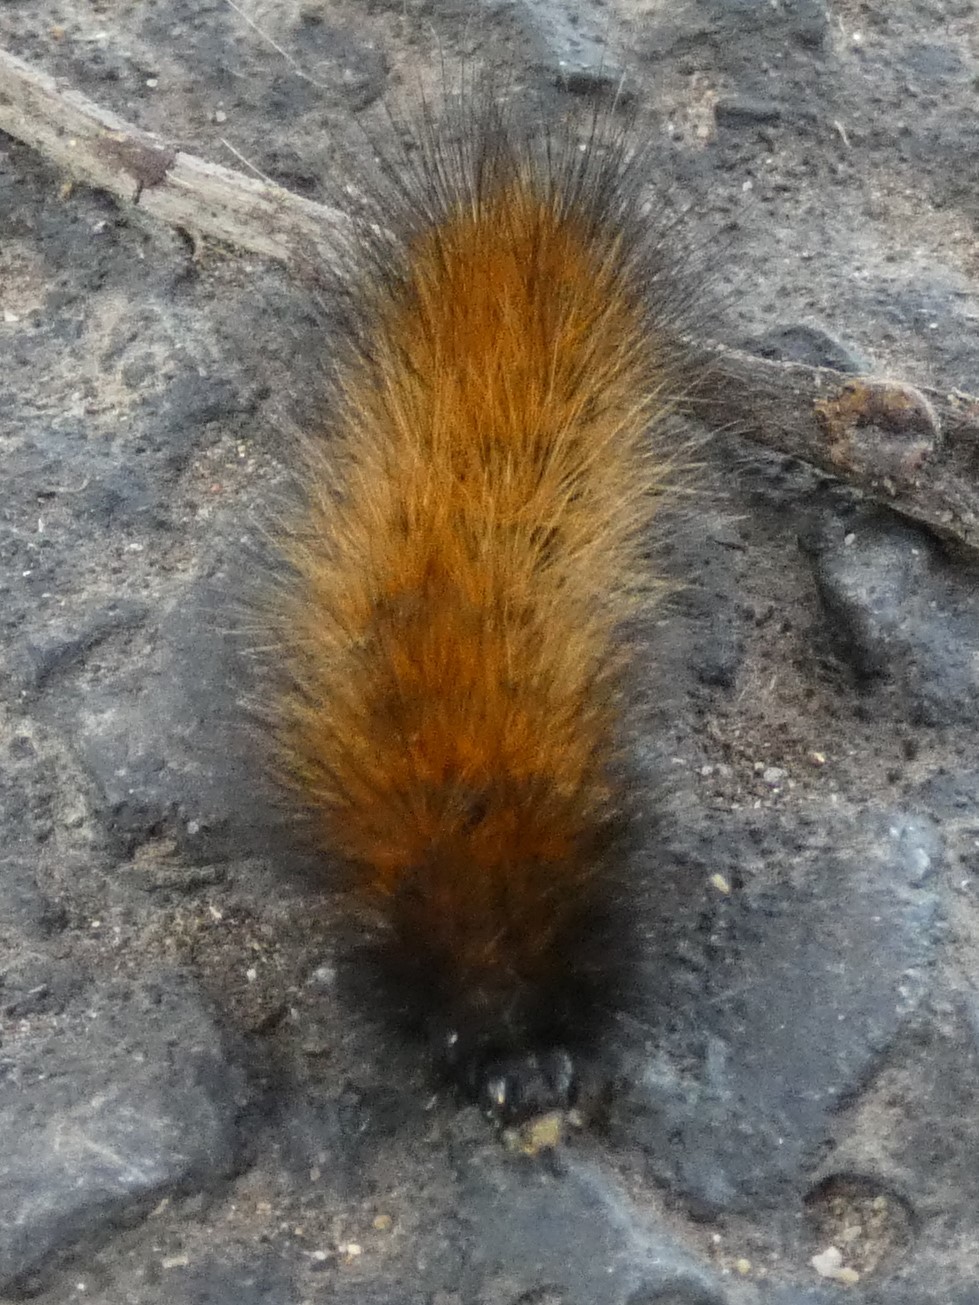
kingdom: Animalia
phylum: Arthropoda
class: Insecta
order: Lepidoptera
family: Erebidae
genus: Spilosoma
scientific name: Spilosoma virginica
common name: Virginia tiger moth
